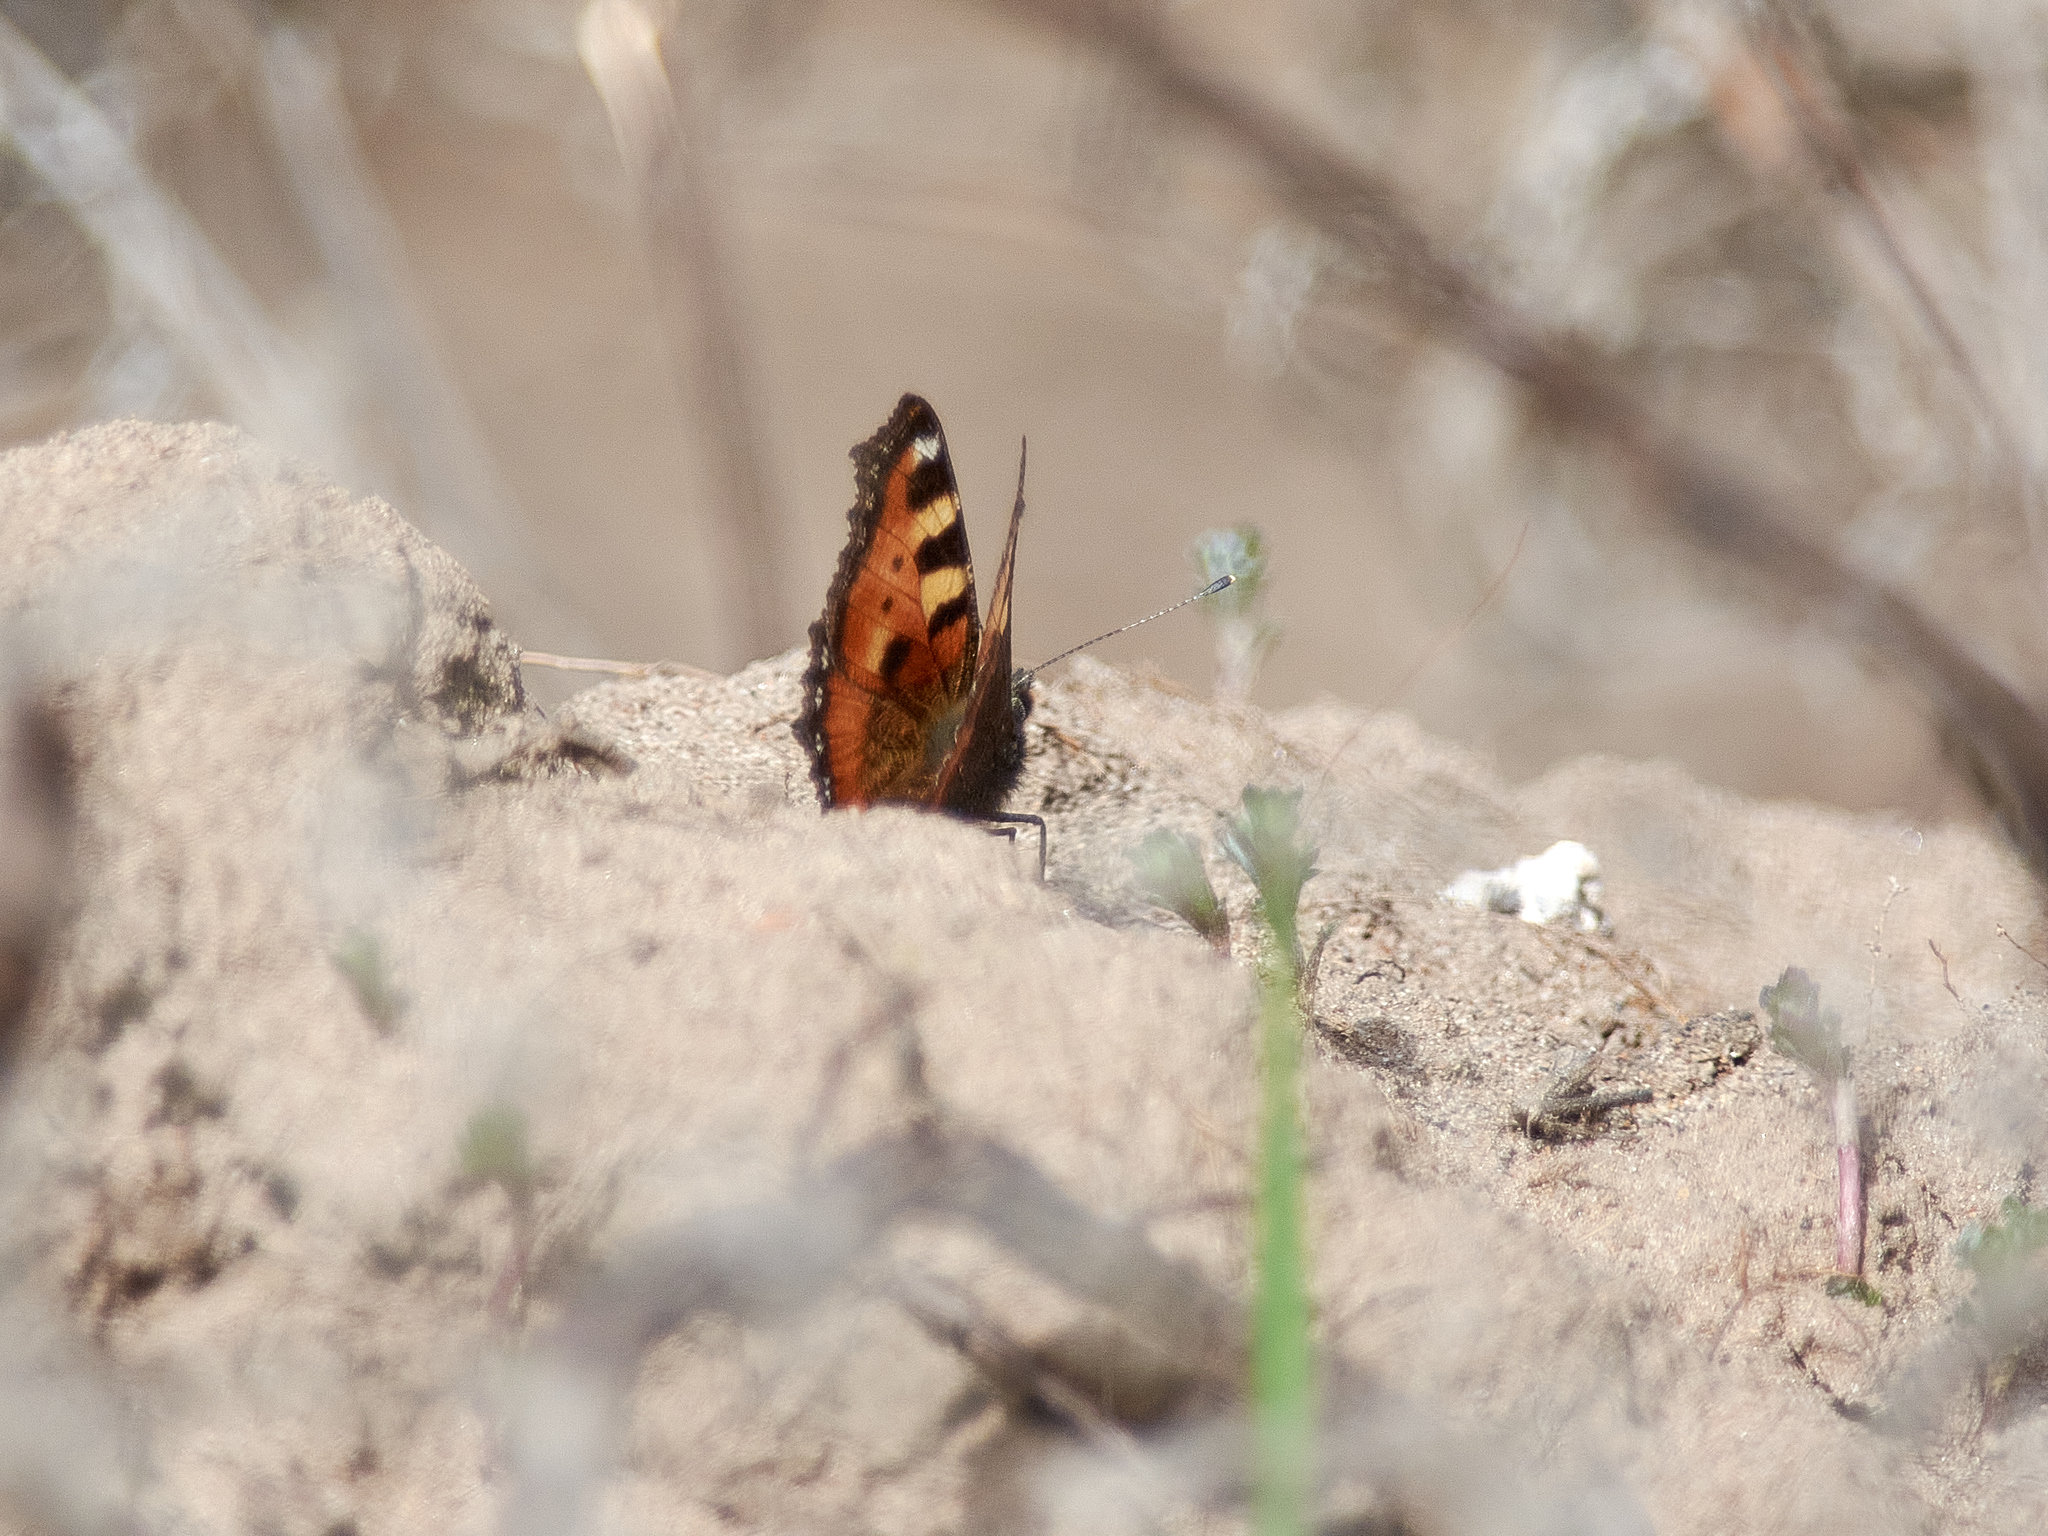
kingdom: Animalia
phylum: Arthropoda
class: Insecta
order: Lepidoptera
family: Nymphalidae
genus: Aglais
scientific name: Aglais urticae
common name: Small tortoiseshell
